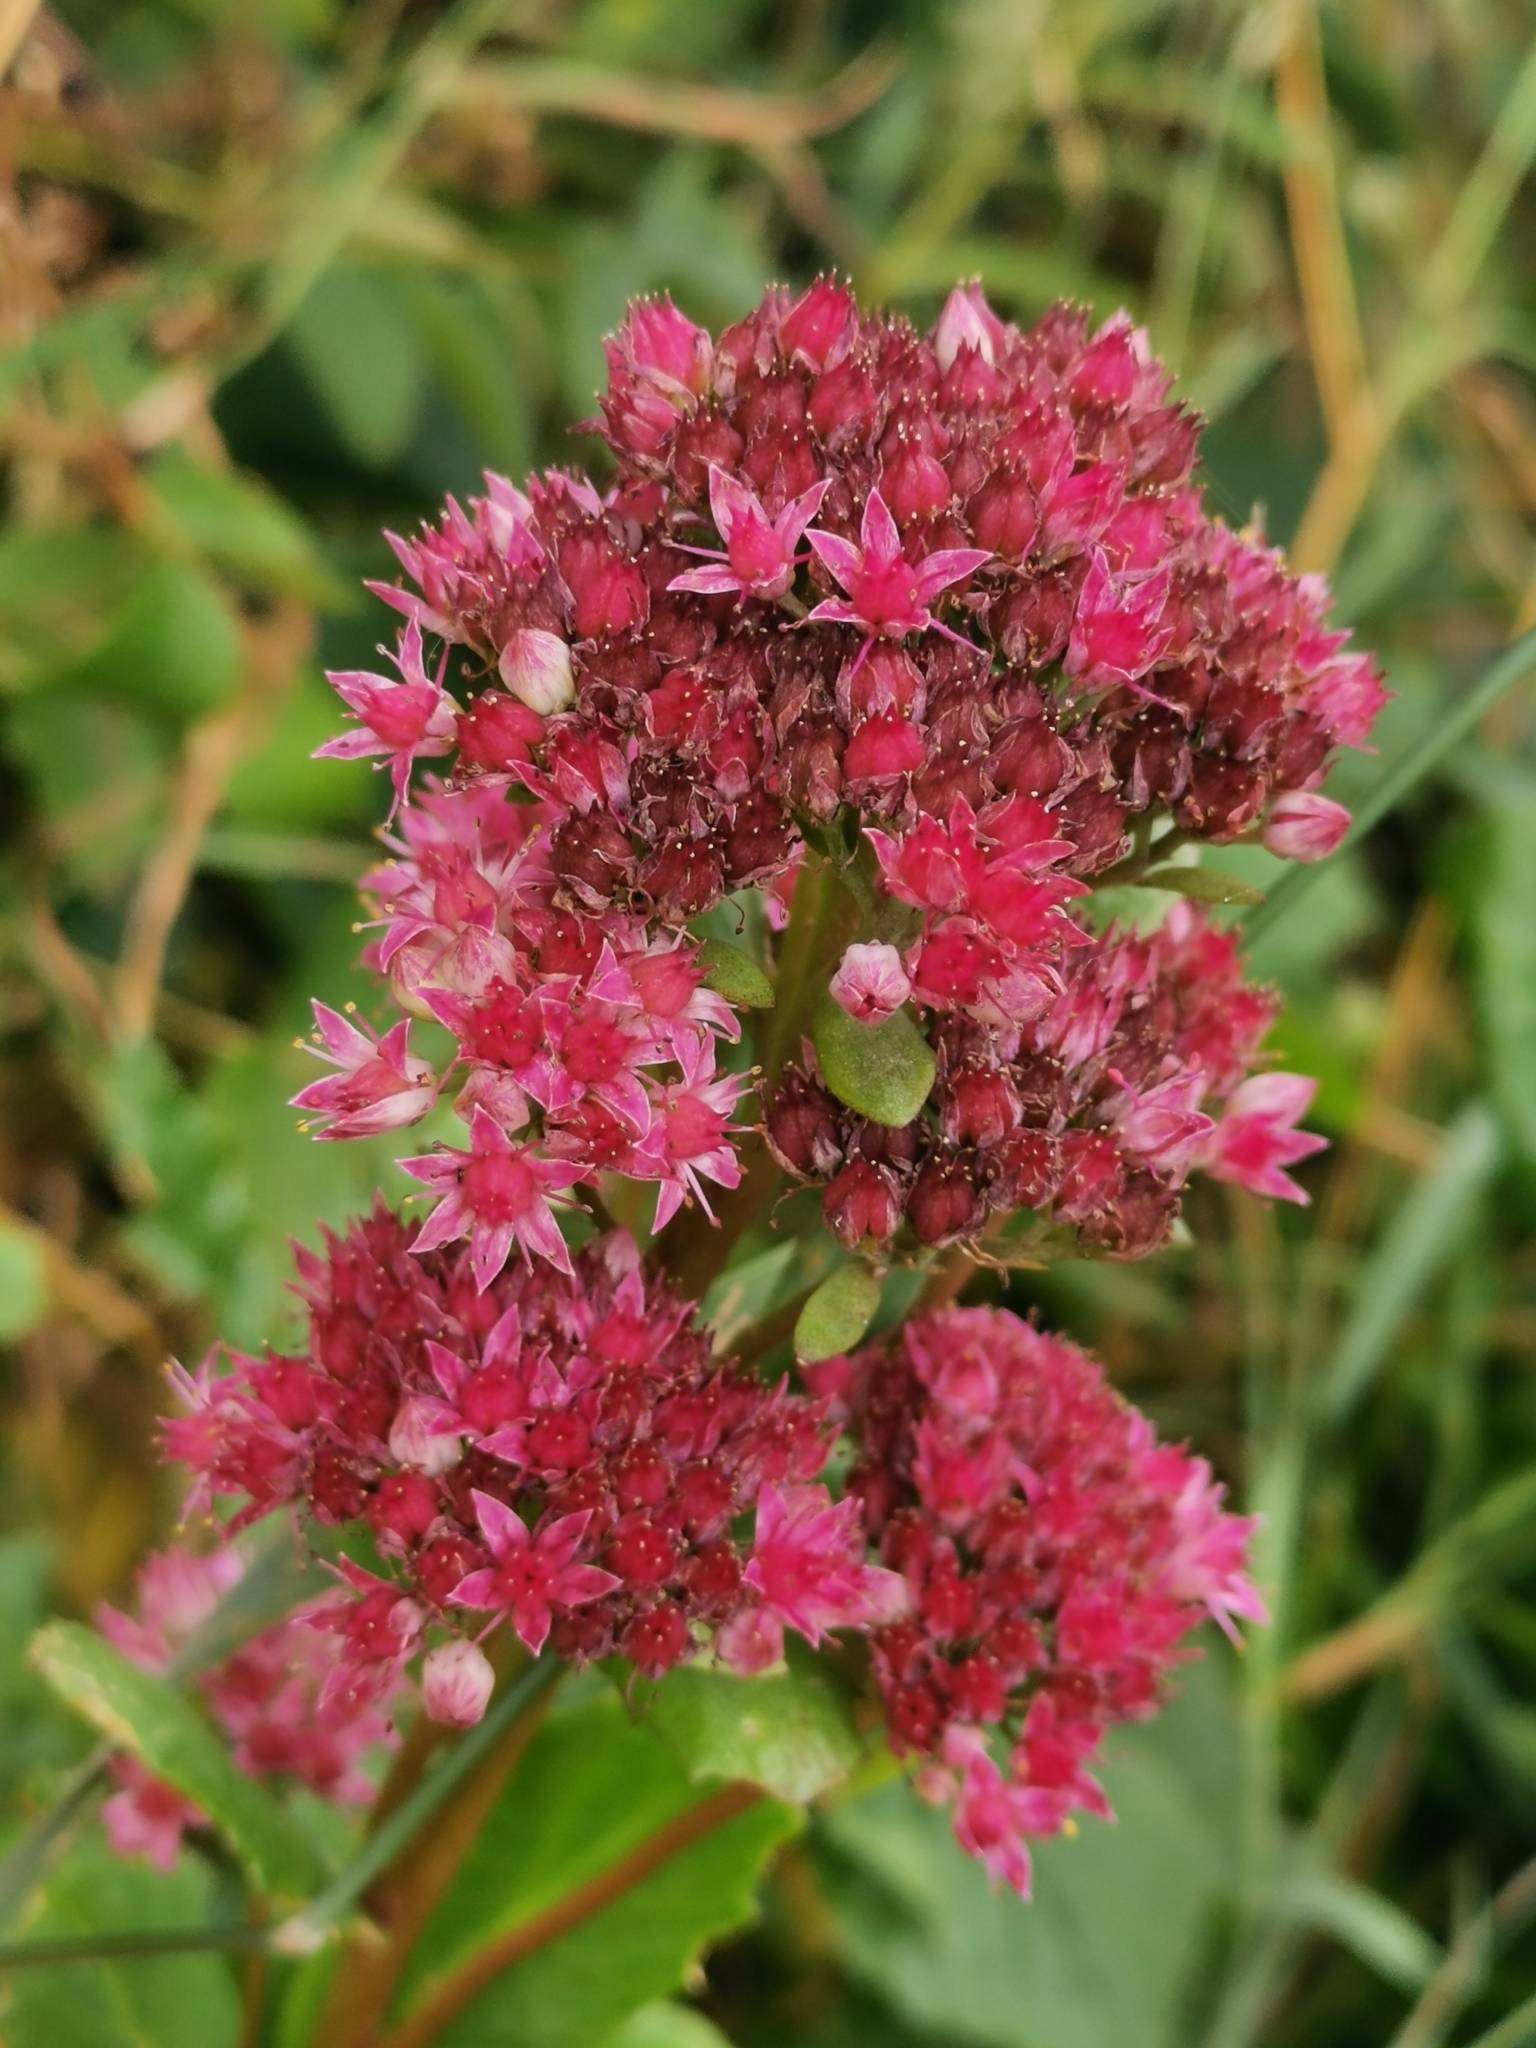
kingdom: Plantae
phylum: Tracheophyta
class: Magnoliopsida
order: Saxifragales
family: Crassulaceae
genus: Hylotelephium
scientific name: Hylotelephium telephium
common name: Live-forever
